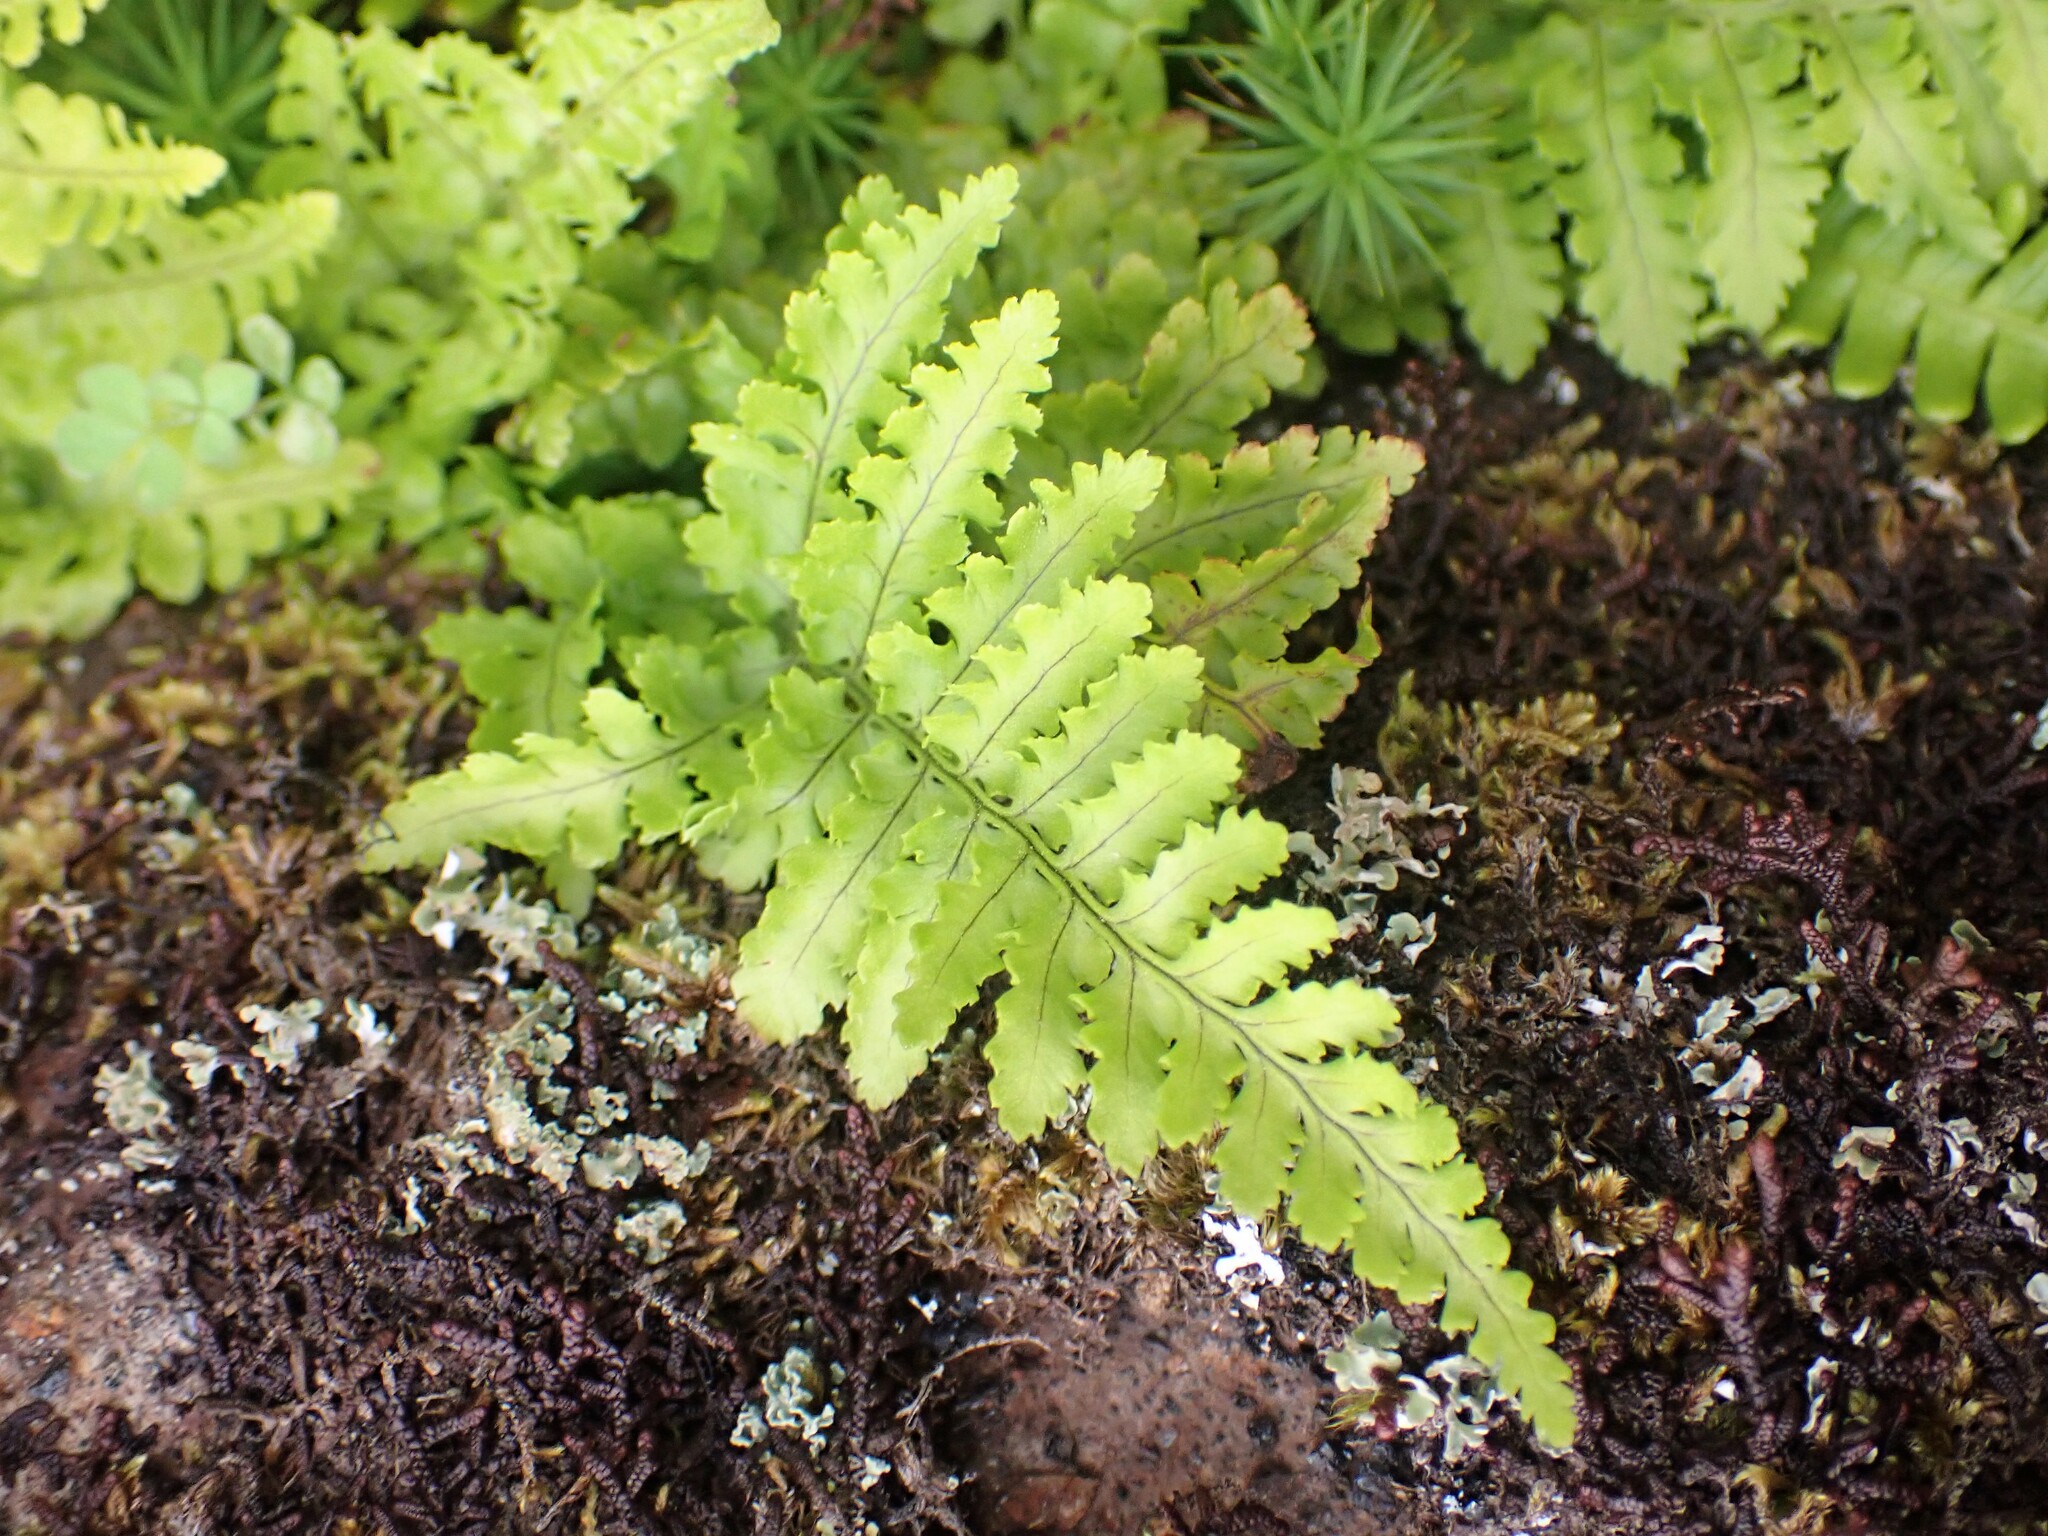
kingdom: Plantae
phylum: Tracheophyta
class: Polypodiopsida
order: Polypodiales
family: Dryopteridaceae
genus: Dryopteris
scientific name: Dryopteris aemula
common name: Hay-scented buckler-fern
